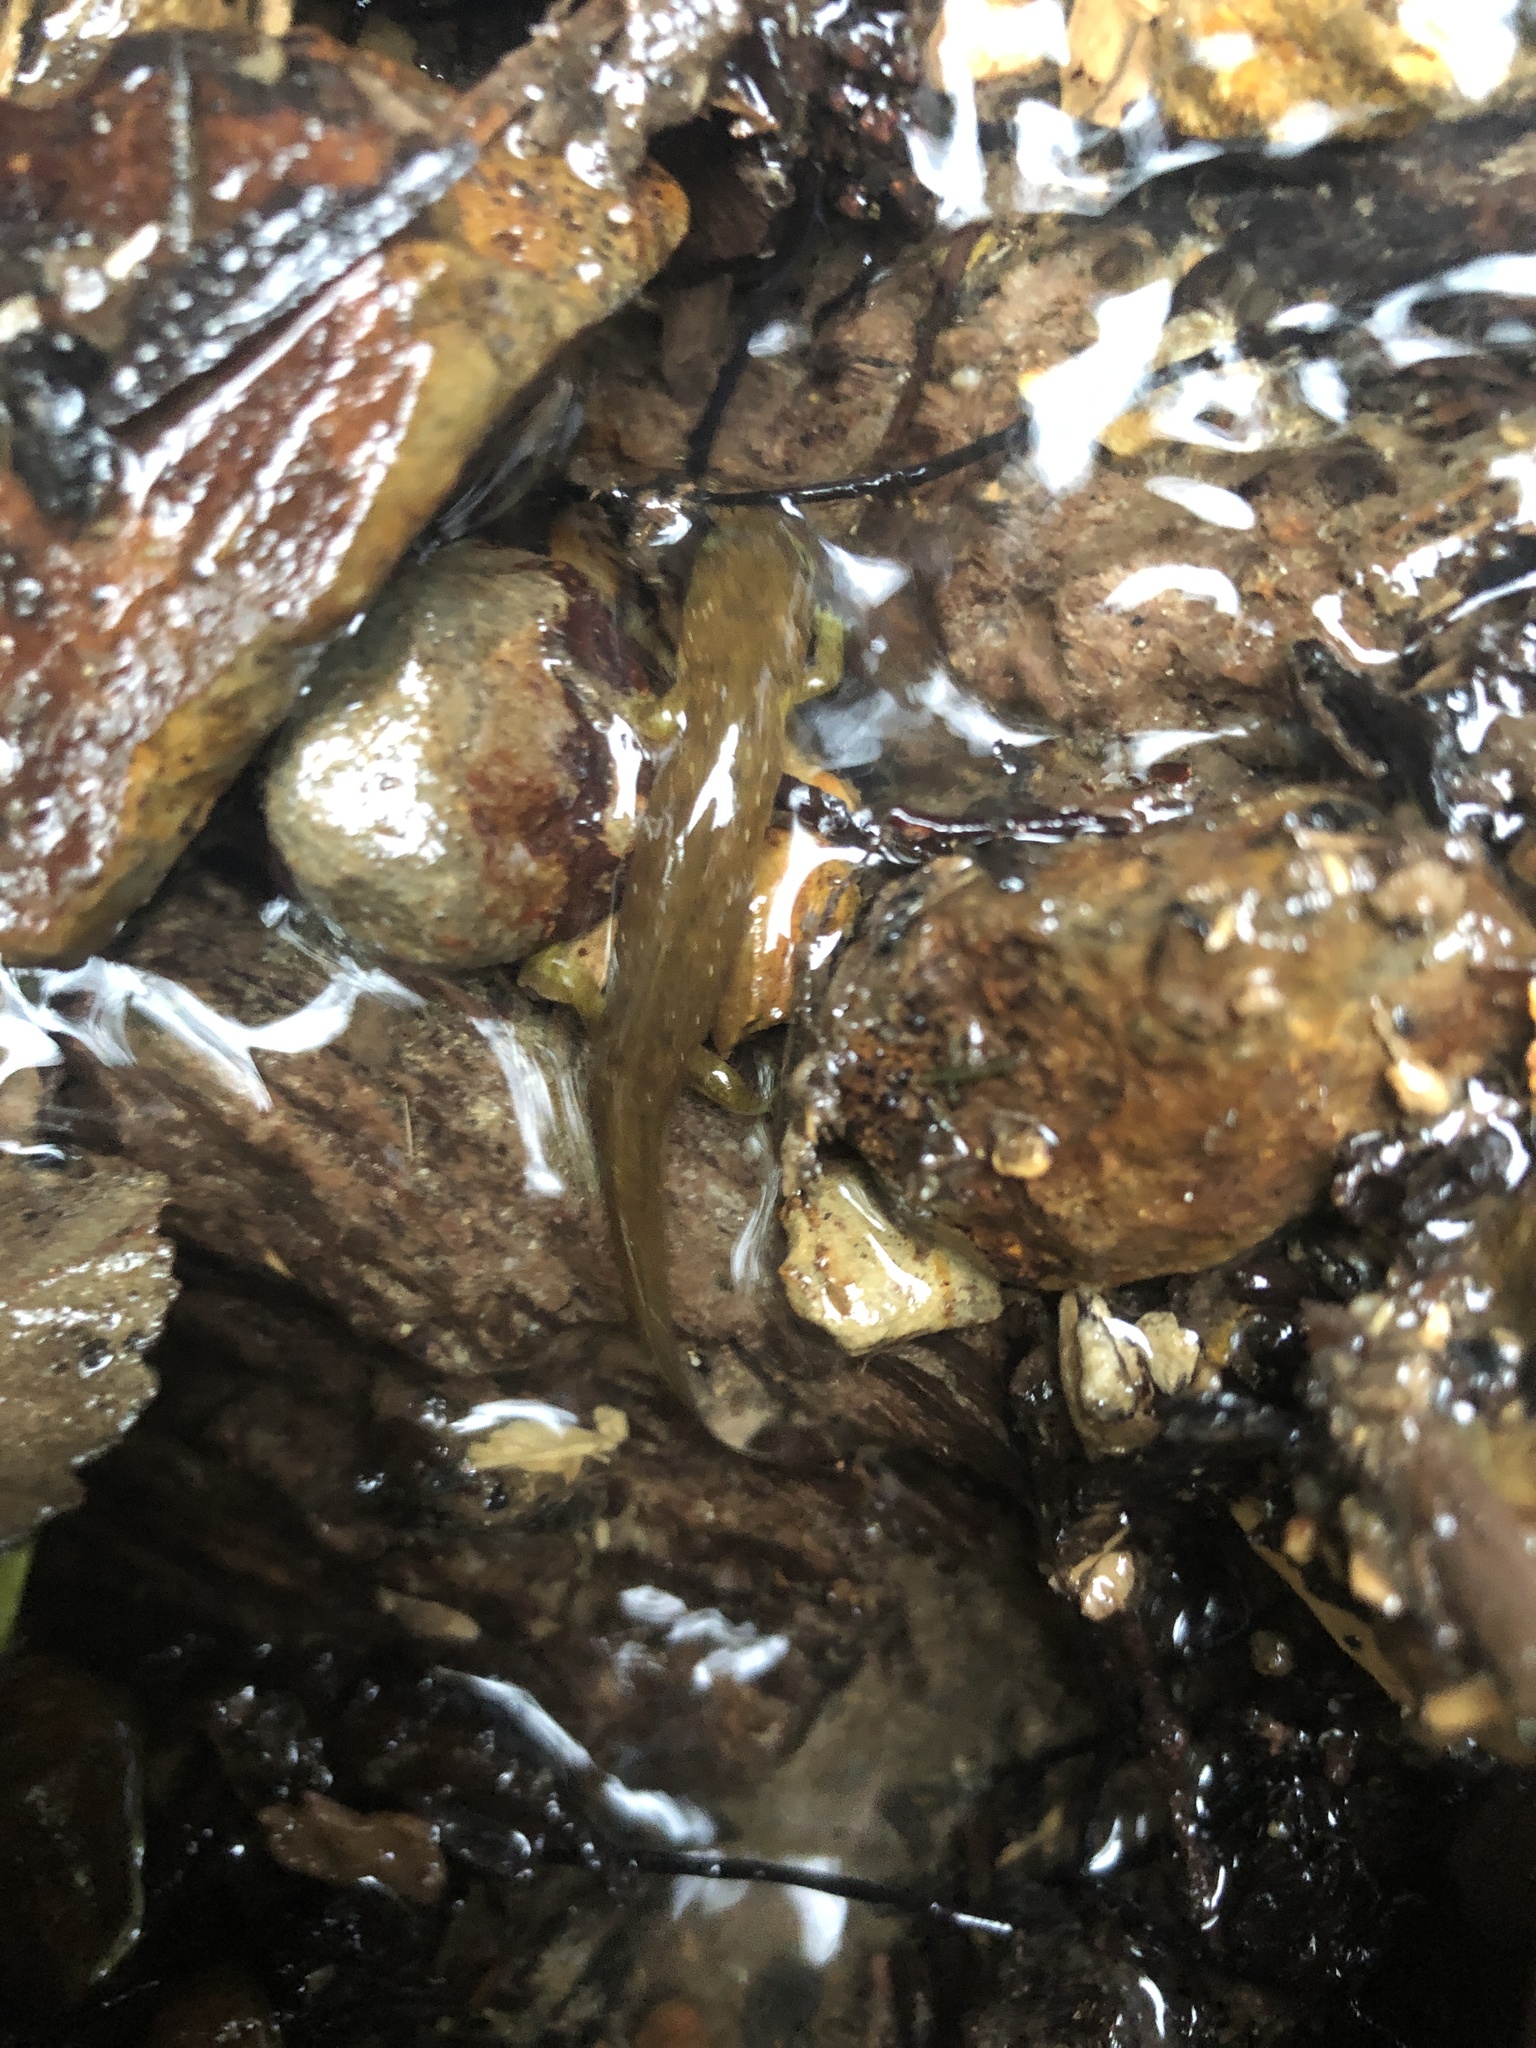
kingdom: Animalia
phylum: Chordata
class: Amphibia
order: Caudata
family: Rhyacotritonidae
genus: Rhyacotriton
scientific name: Rhyacotriton kezeri
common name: Columbia torrent salamander
